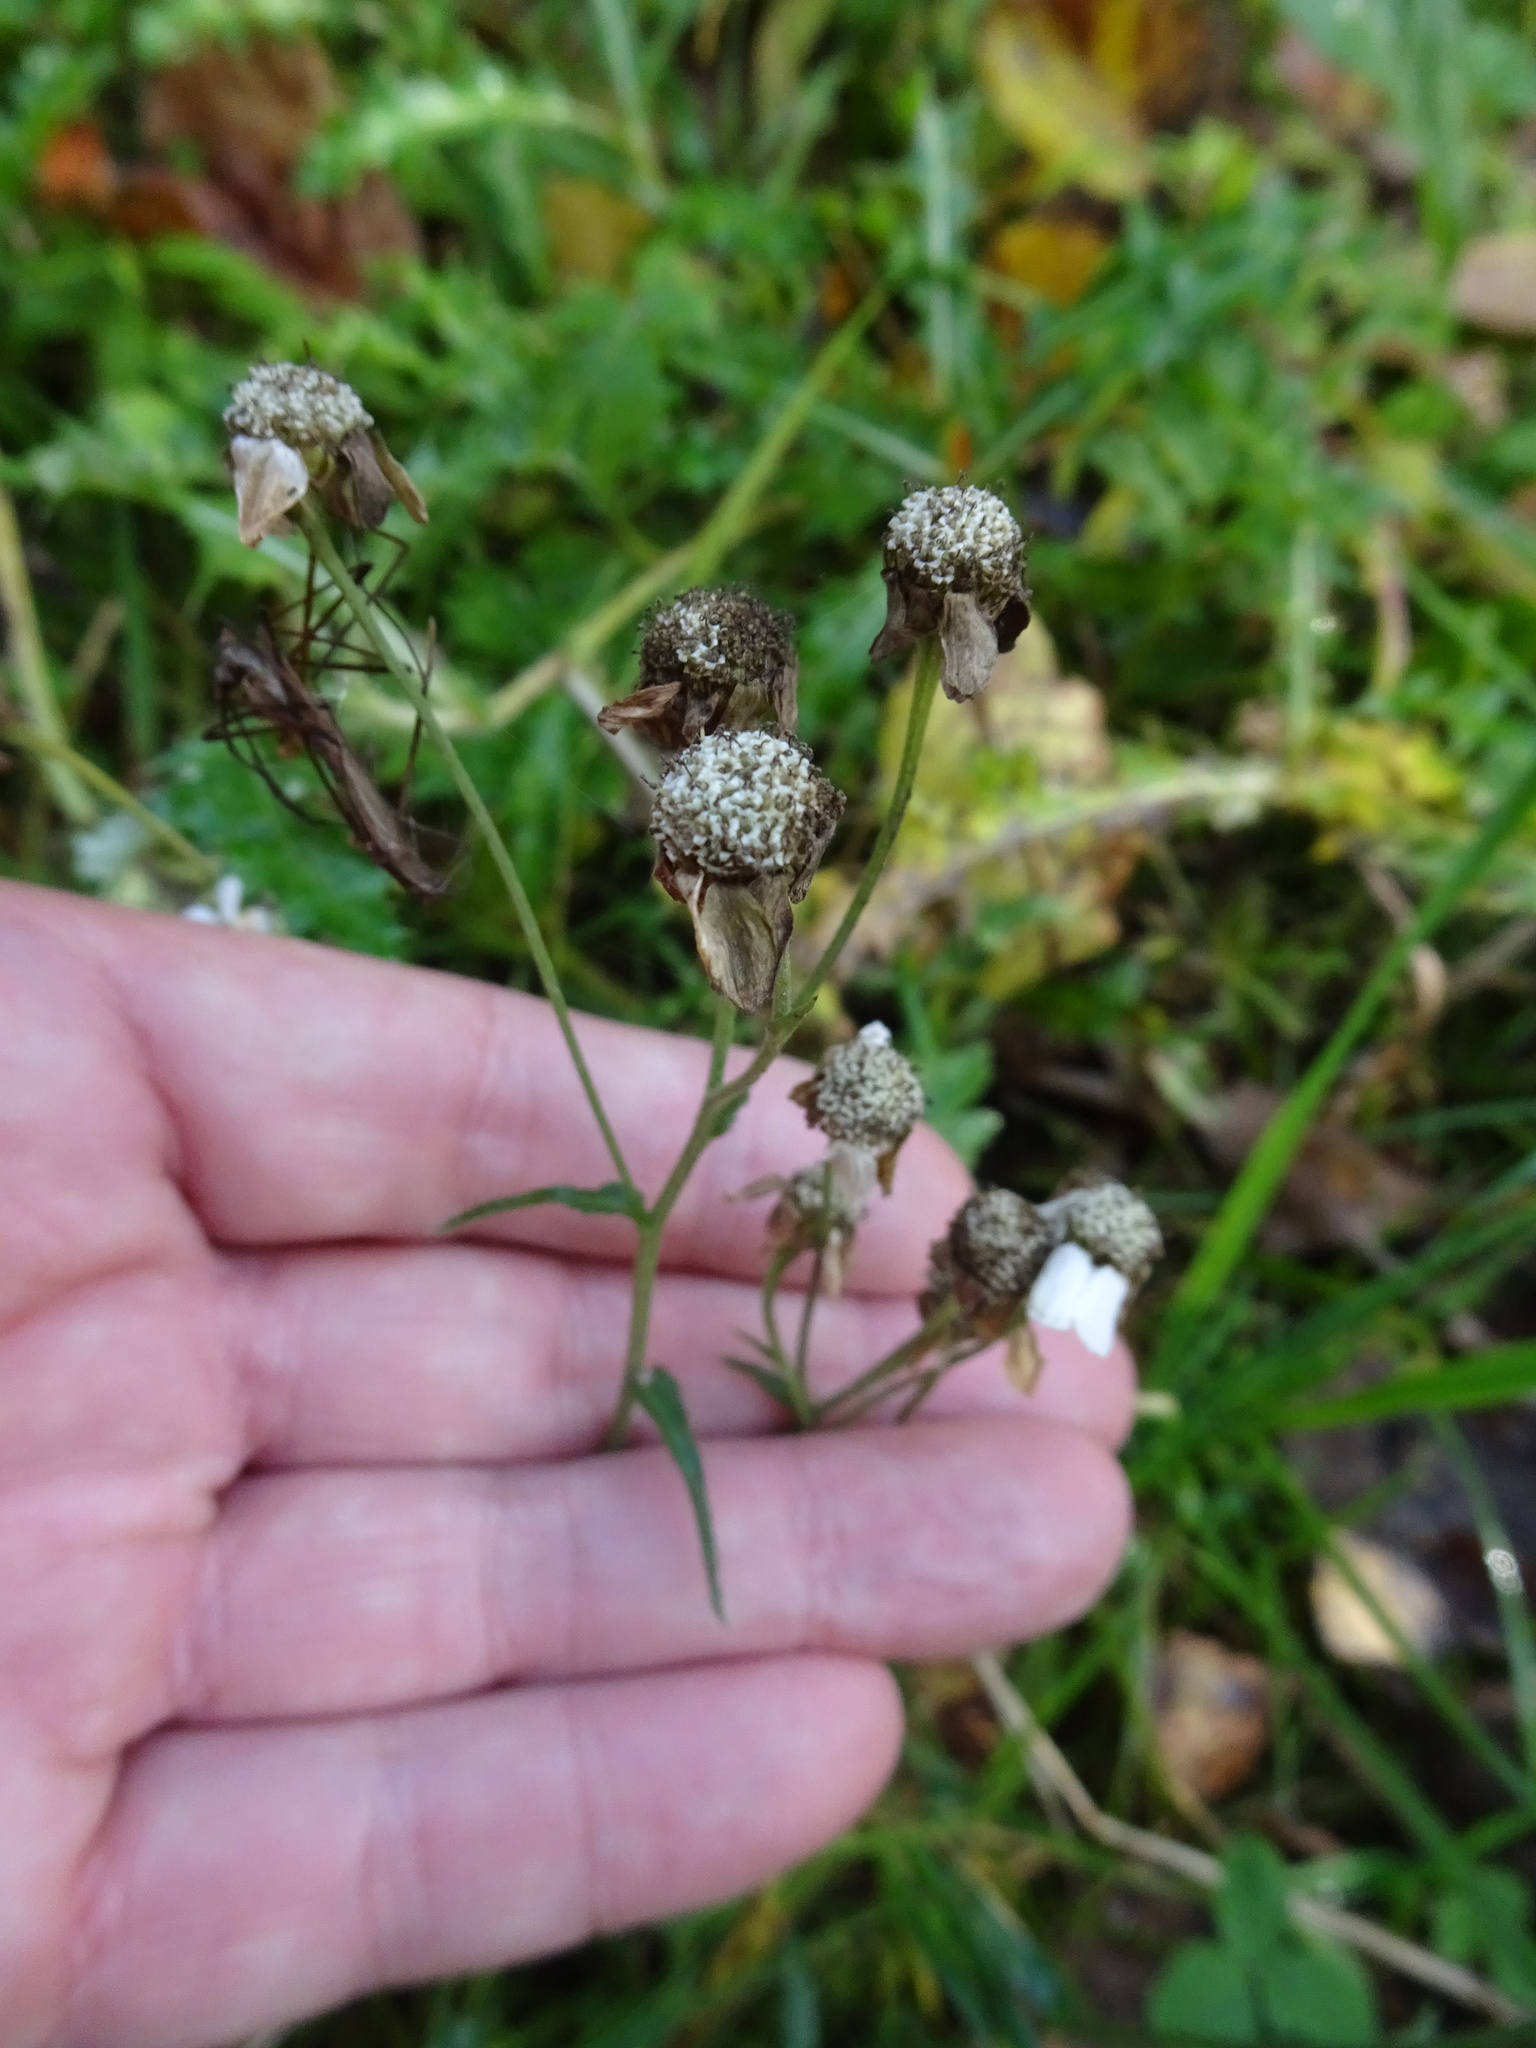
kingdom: Plantae
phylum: Tracheophyta
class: Magnoliopsida
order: Asterales
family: Asteraceae
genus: Achillea
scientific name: Achillea ptarmica
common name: Sneezeweed
